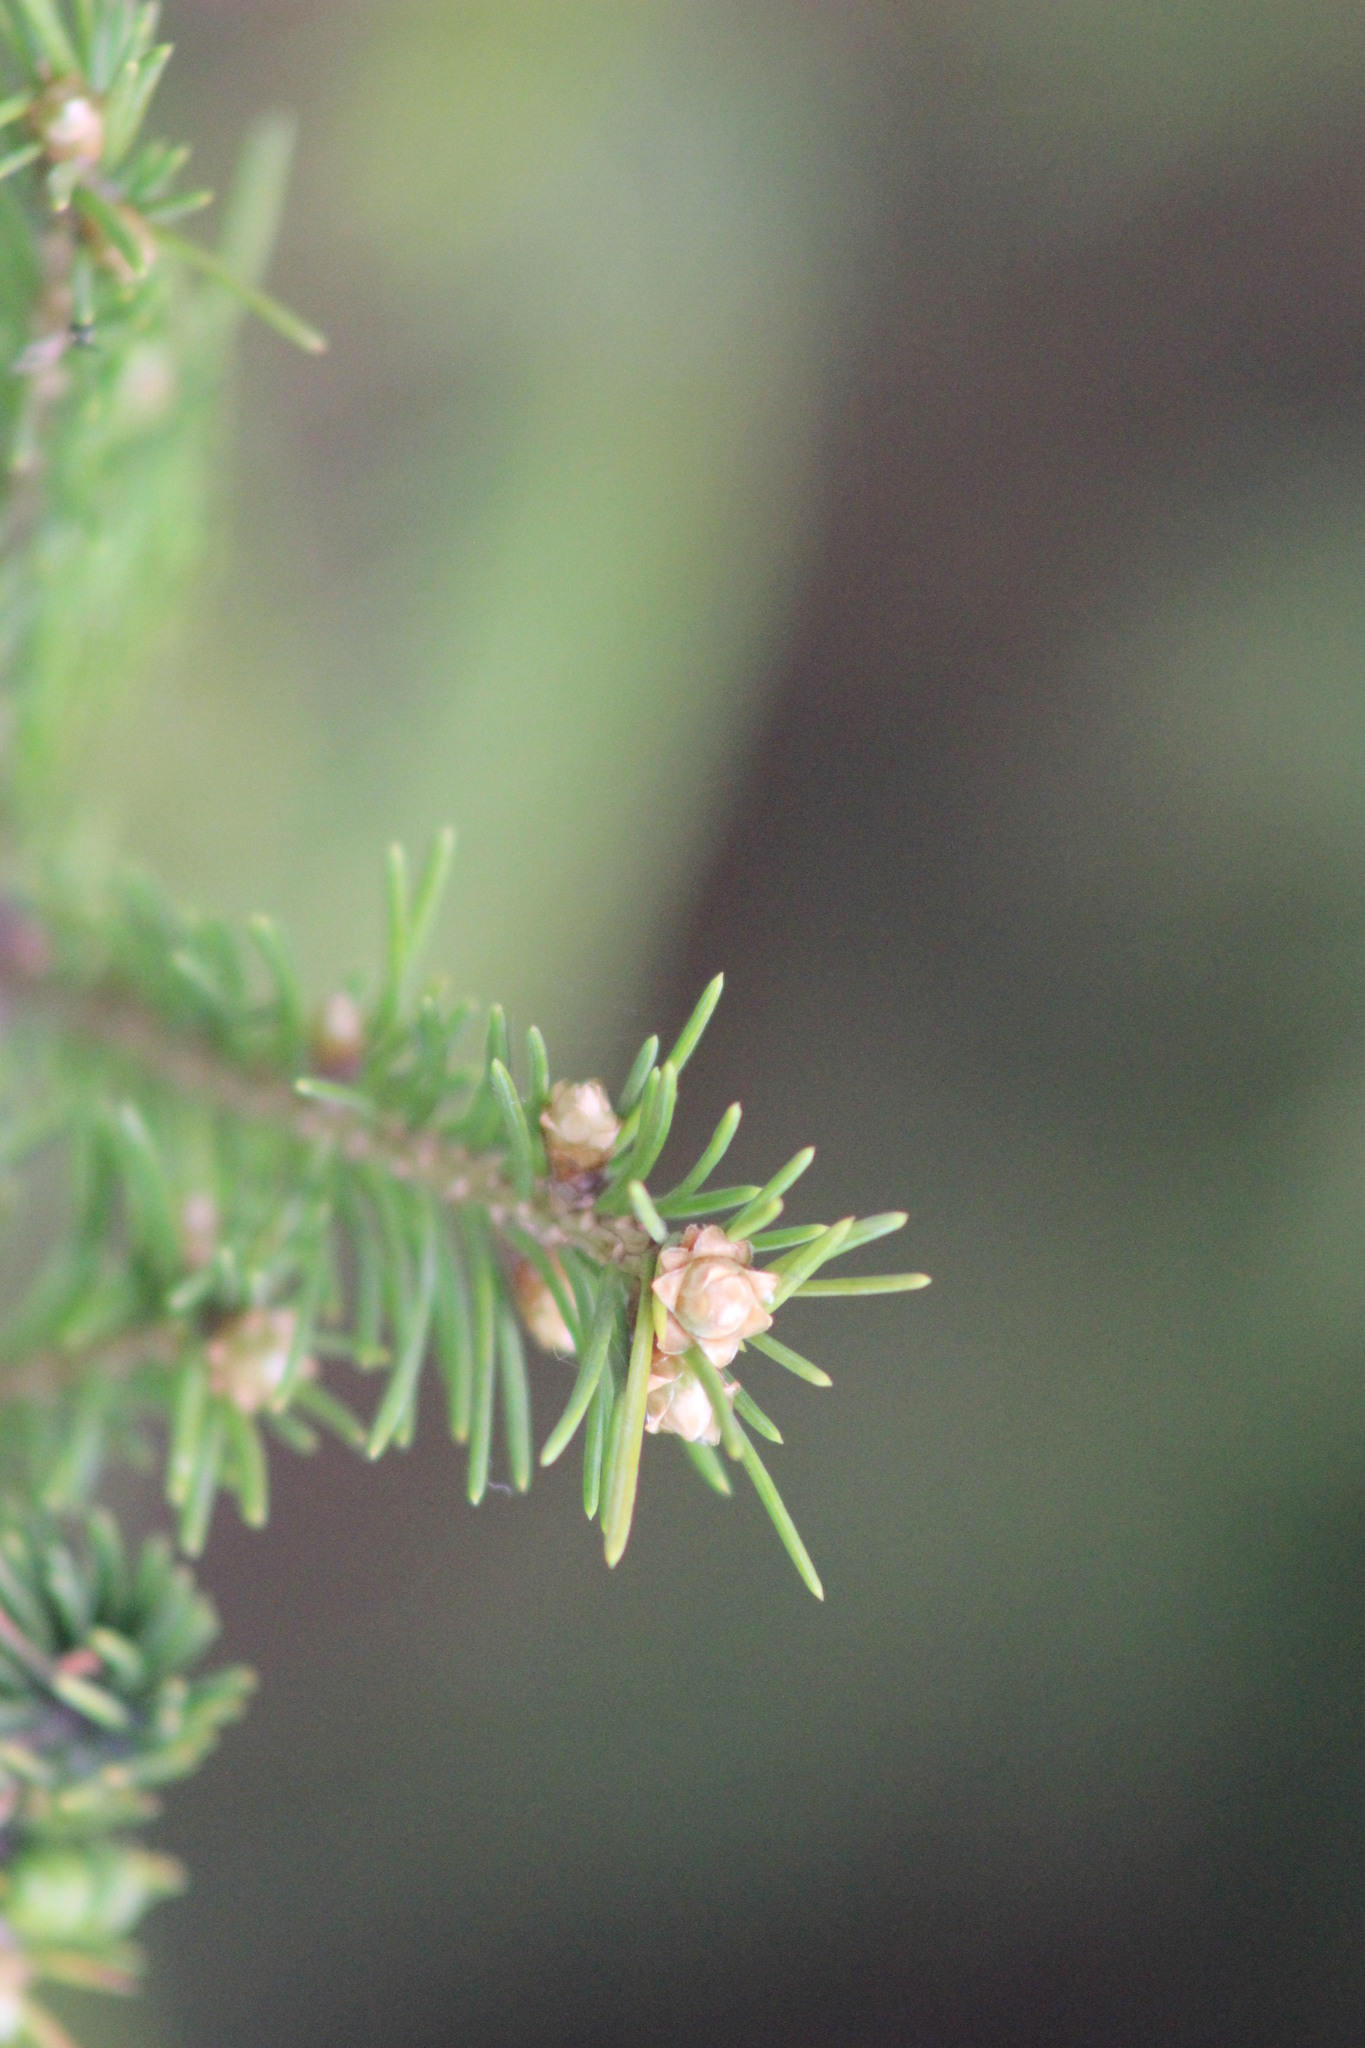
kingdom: Plantae
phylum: Tracheophyta
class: Pinopsida
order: Pinales
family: Pinaceae
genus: Pinus
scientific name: Pinus sylvestris
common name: Scots pine
